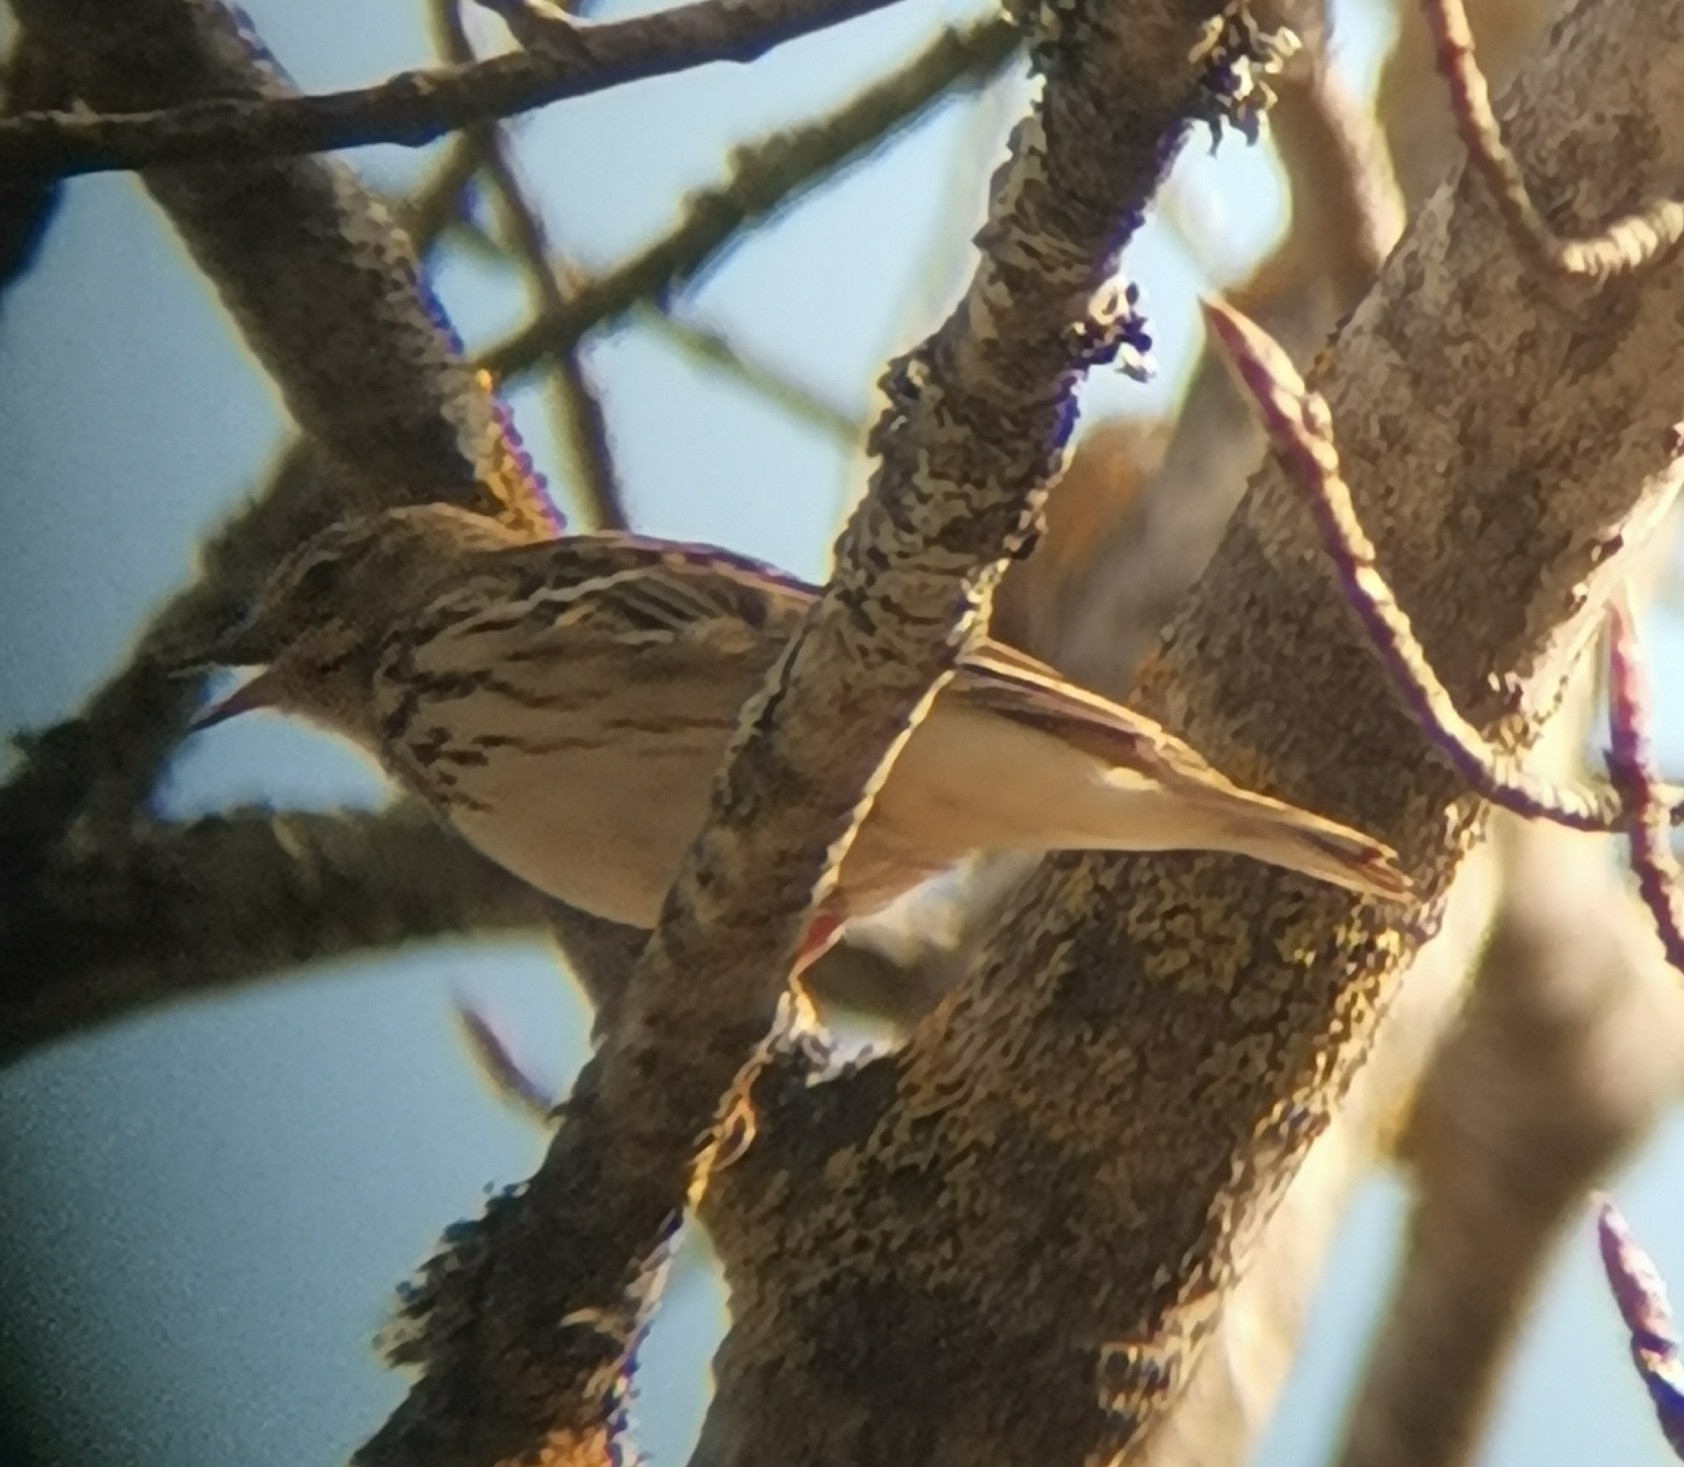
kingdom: Animalia
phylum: Chordata
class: Aves
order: Passeriformes
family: Motacillidae
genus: Anthus
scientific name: Anthus trivialis
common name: Tree pipit
